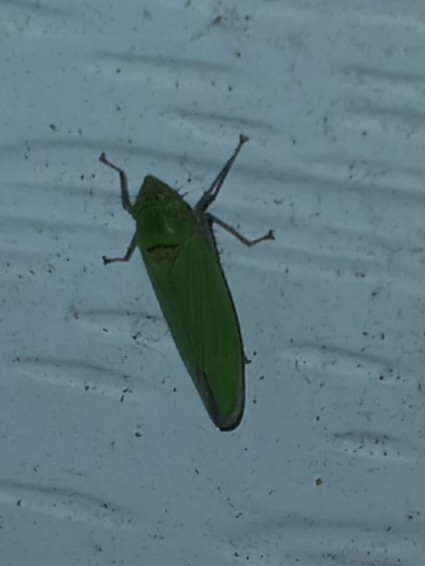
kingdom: Animalia
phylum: Arthropoda
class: Insecta
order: Hemiptera
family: Cicadellidae
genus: Draeculacephala
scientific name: Draeculacephala inscripta
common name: Leafhopper
